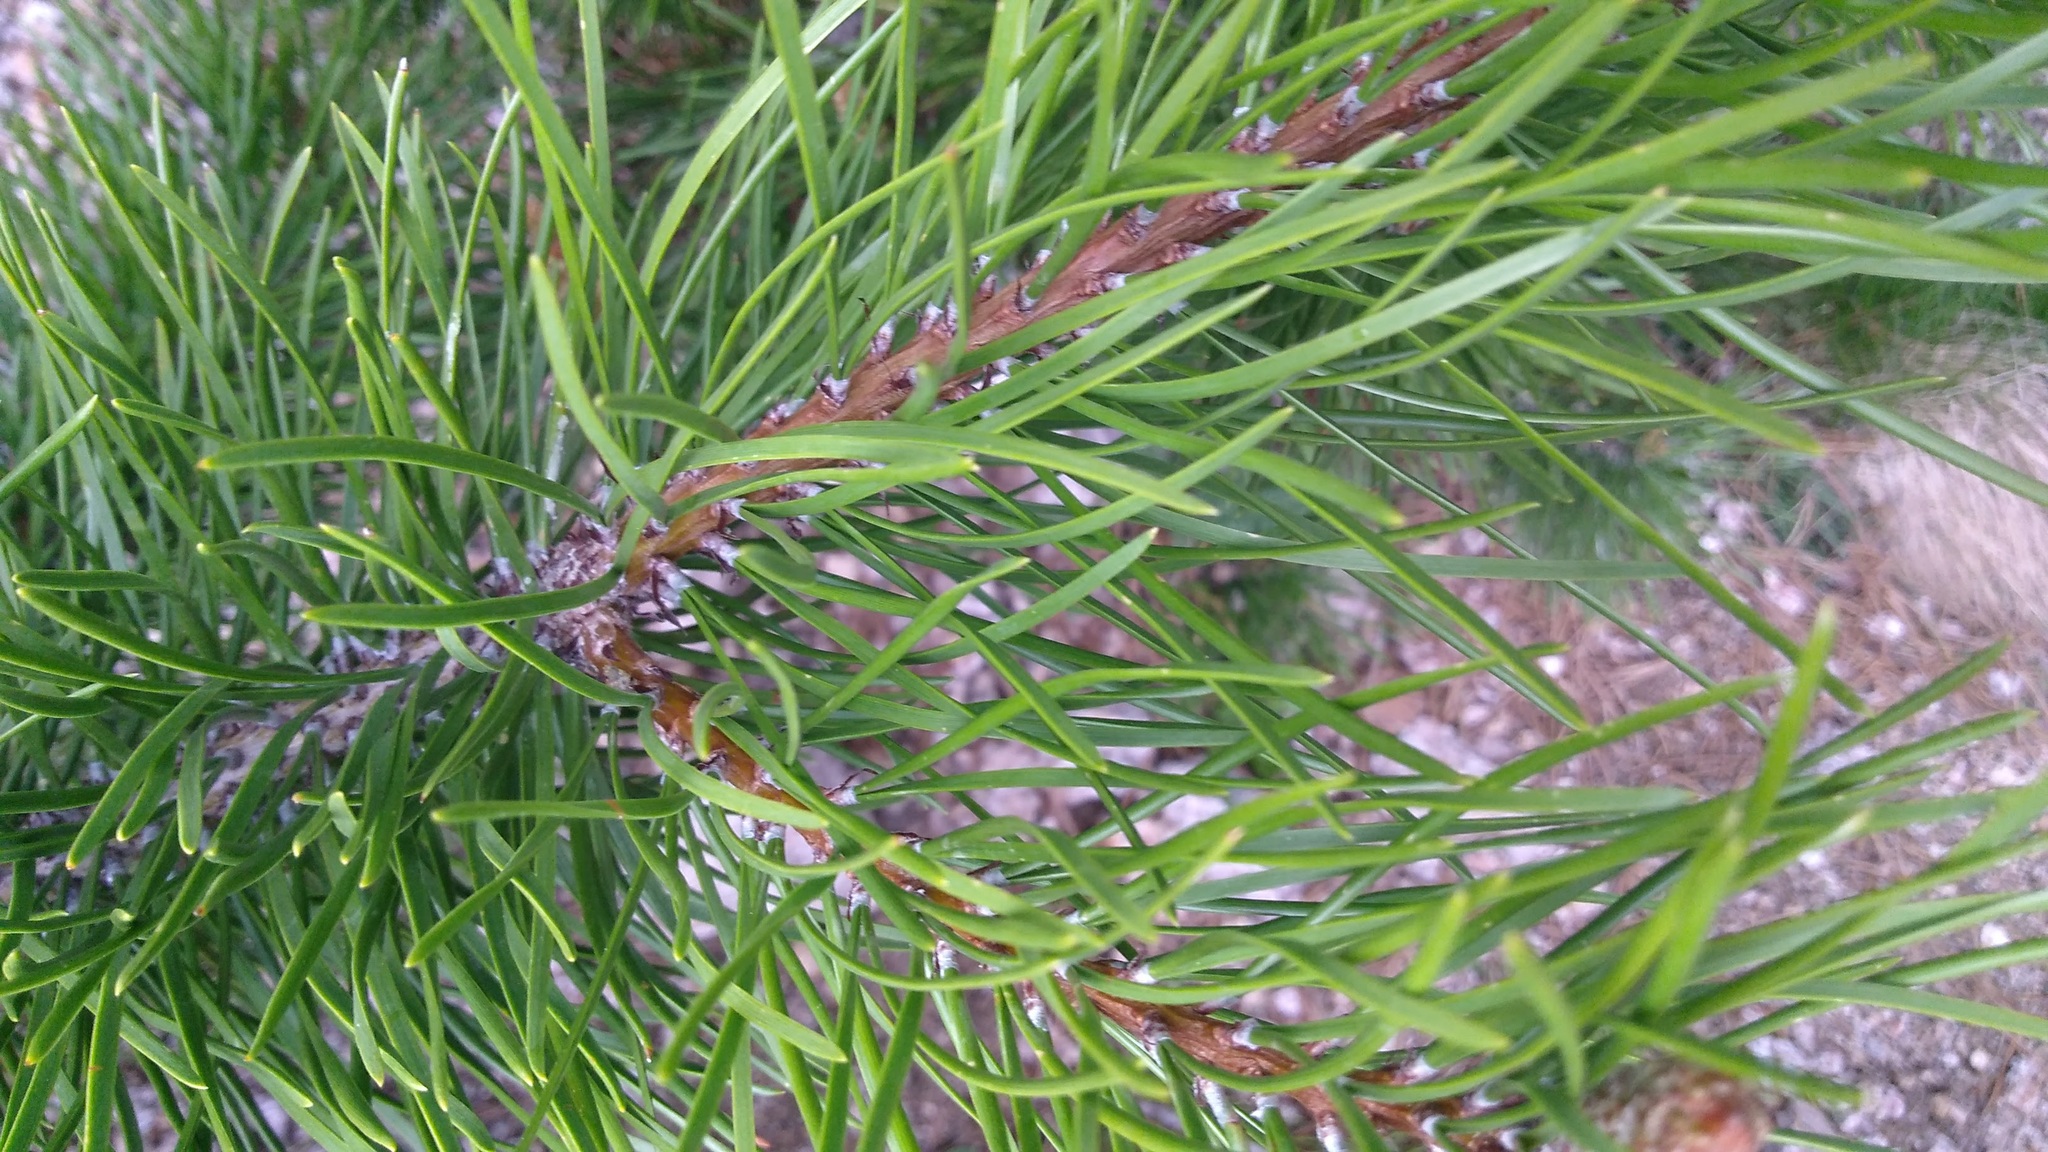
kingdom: Plantae
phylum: Tracheophyta
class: Pinopsida
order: Pinales
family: Pinaceae
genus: Pinus
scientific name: Pinus contorta
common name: Lodgepole pine
